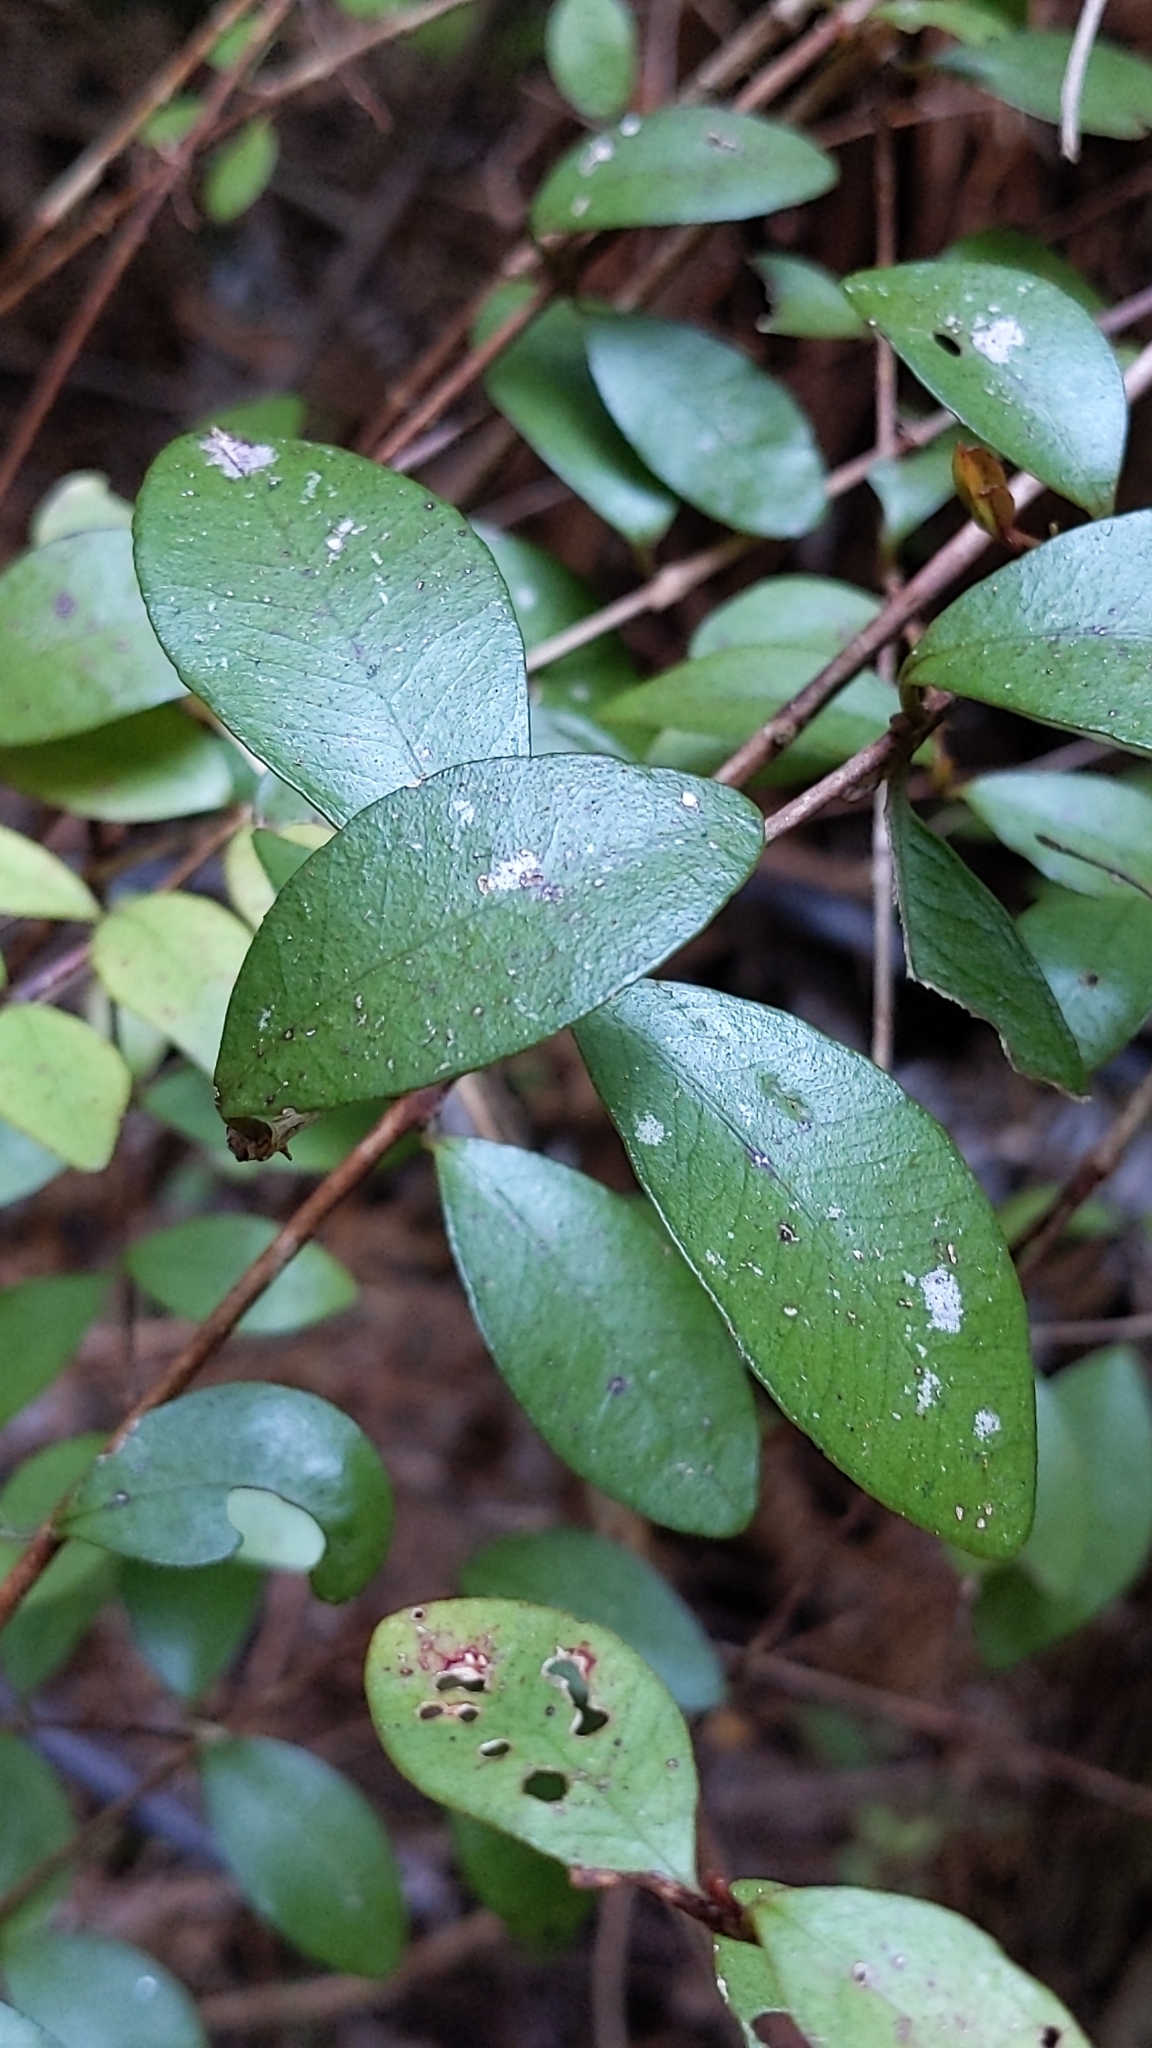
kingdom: Plantae
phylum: Tracheophyta
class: Magnoliopsida
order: Myrtales
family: Myrtaceae
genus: Metrosideros
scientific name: Metrosideros fulgens
